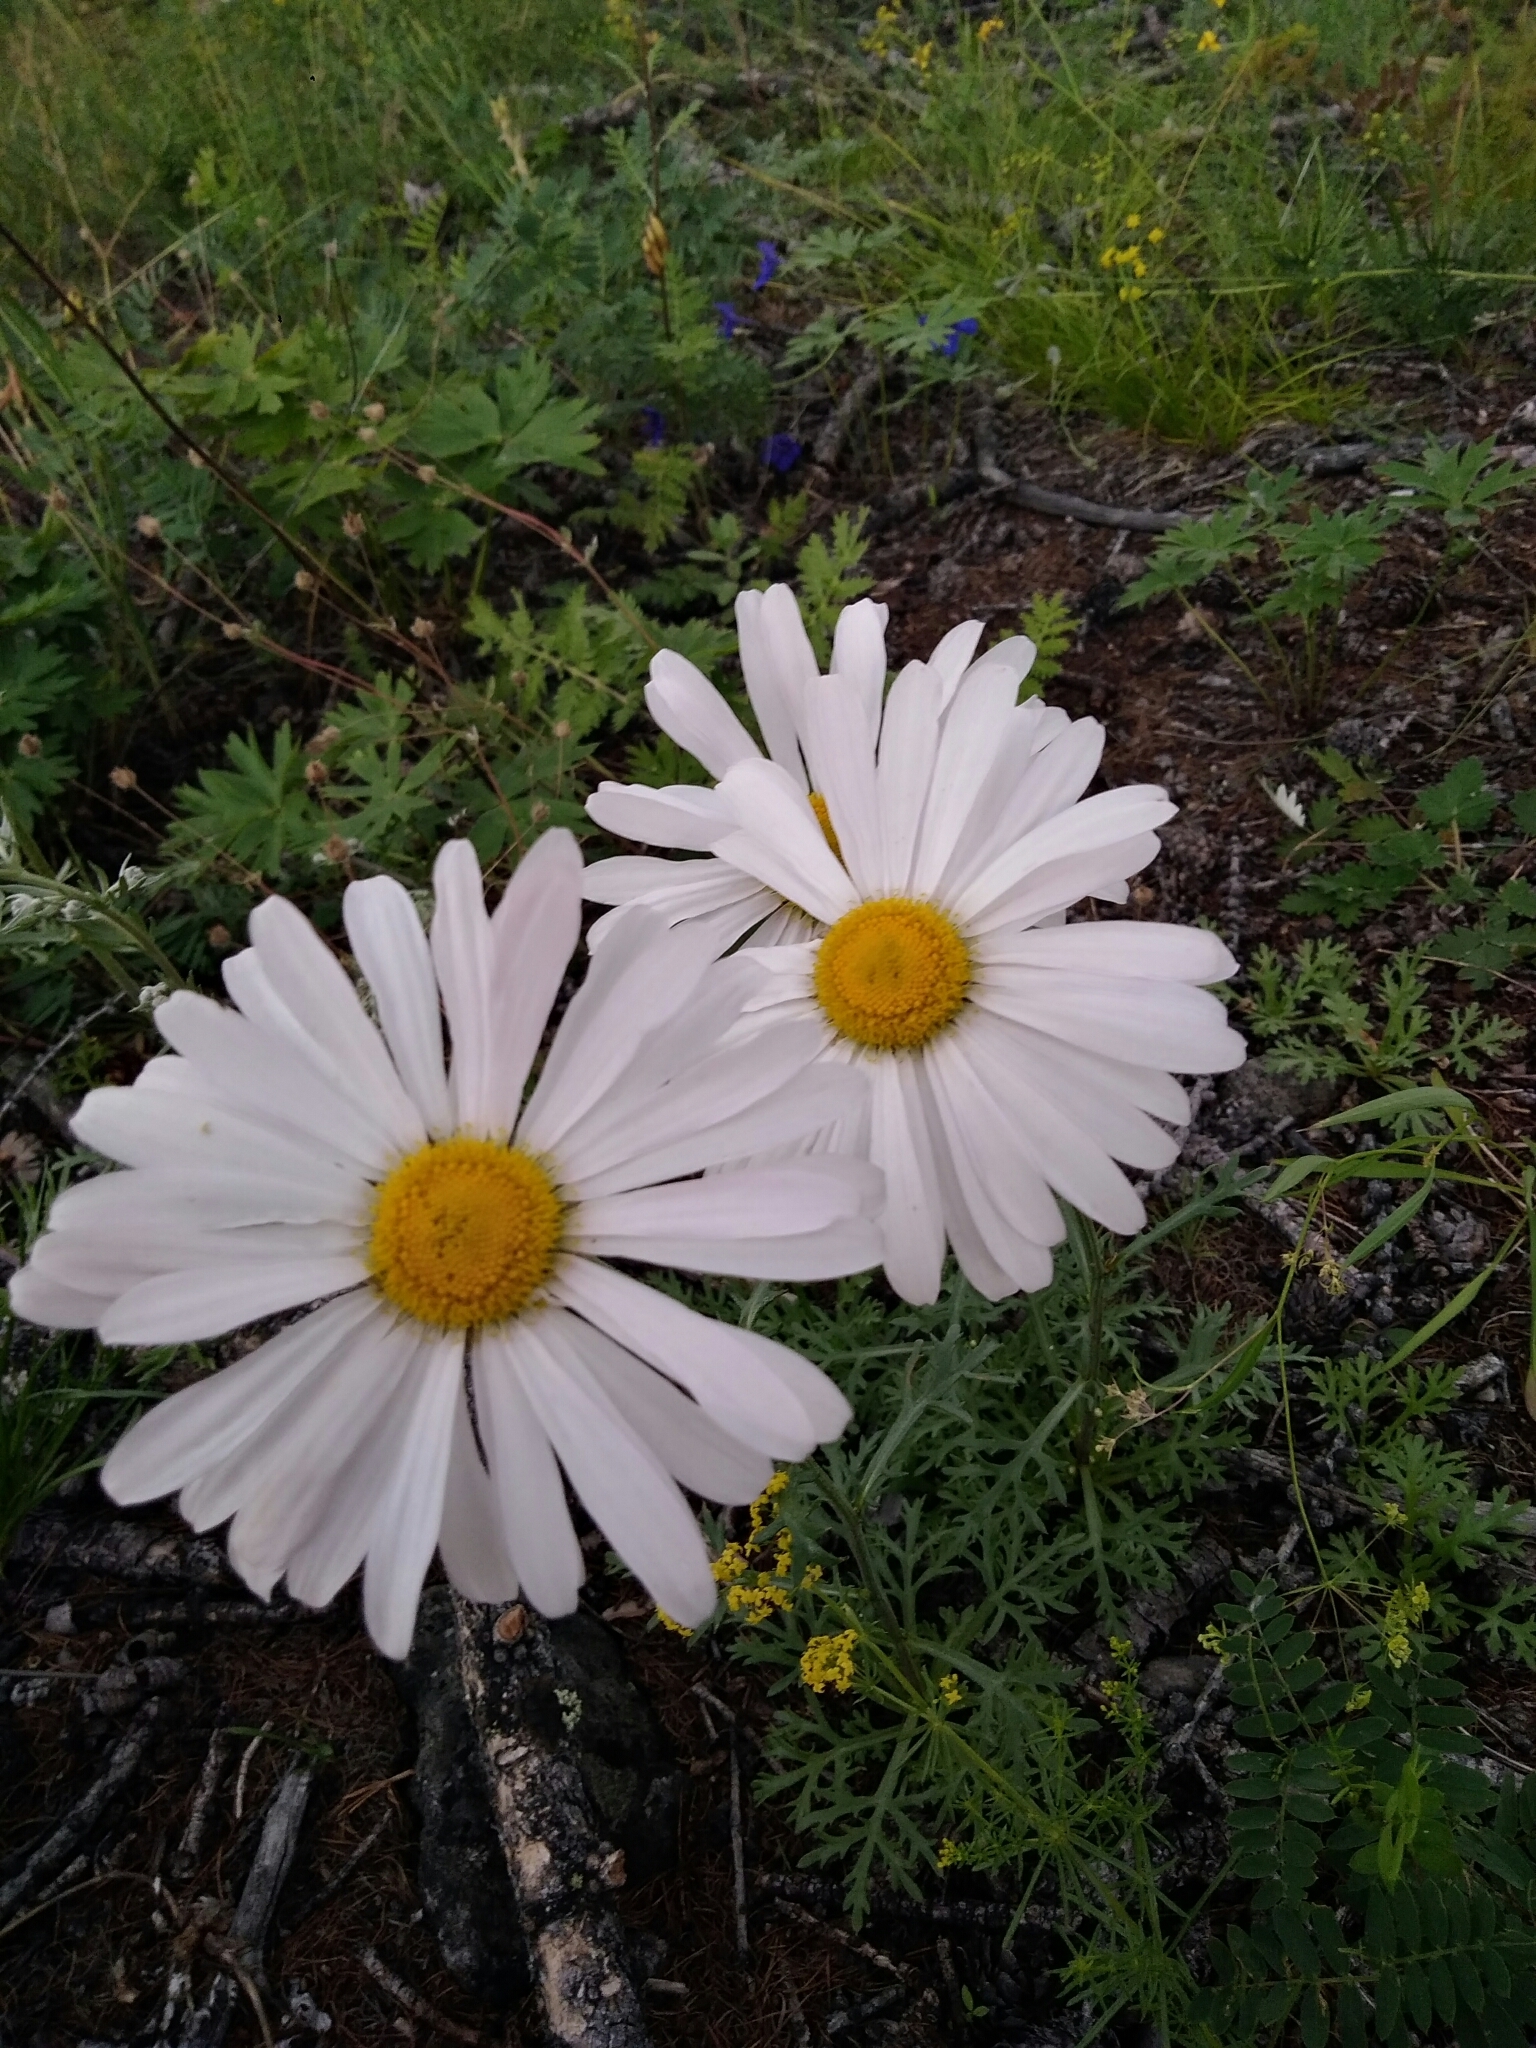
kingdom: Plantae
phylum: Tracheophyta
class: Magnoliopsida
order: Asterales
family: Asteraceae
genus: Chrysanthemum
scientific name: Chrysanthemum zawadzkii
